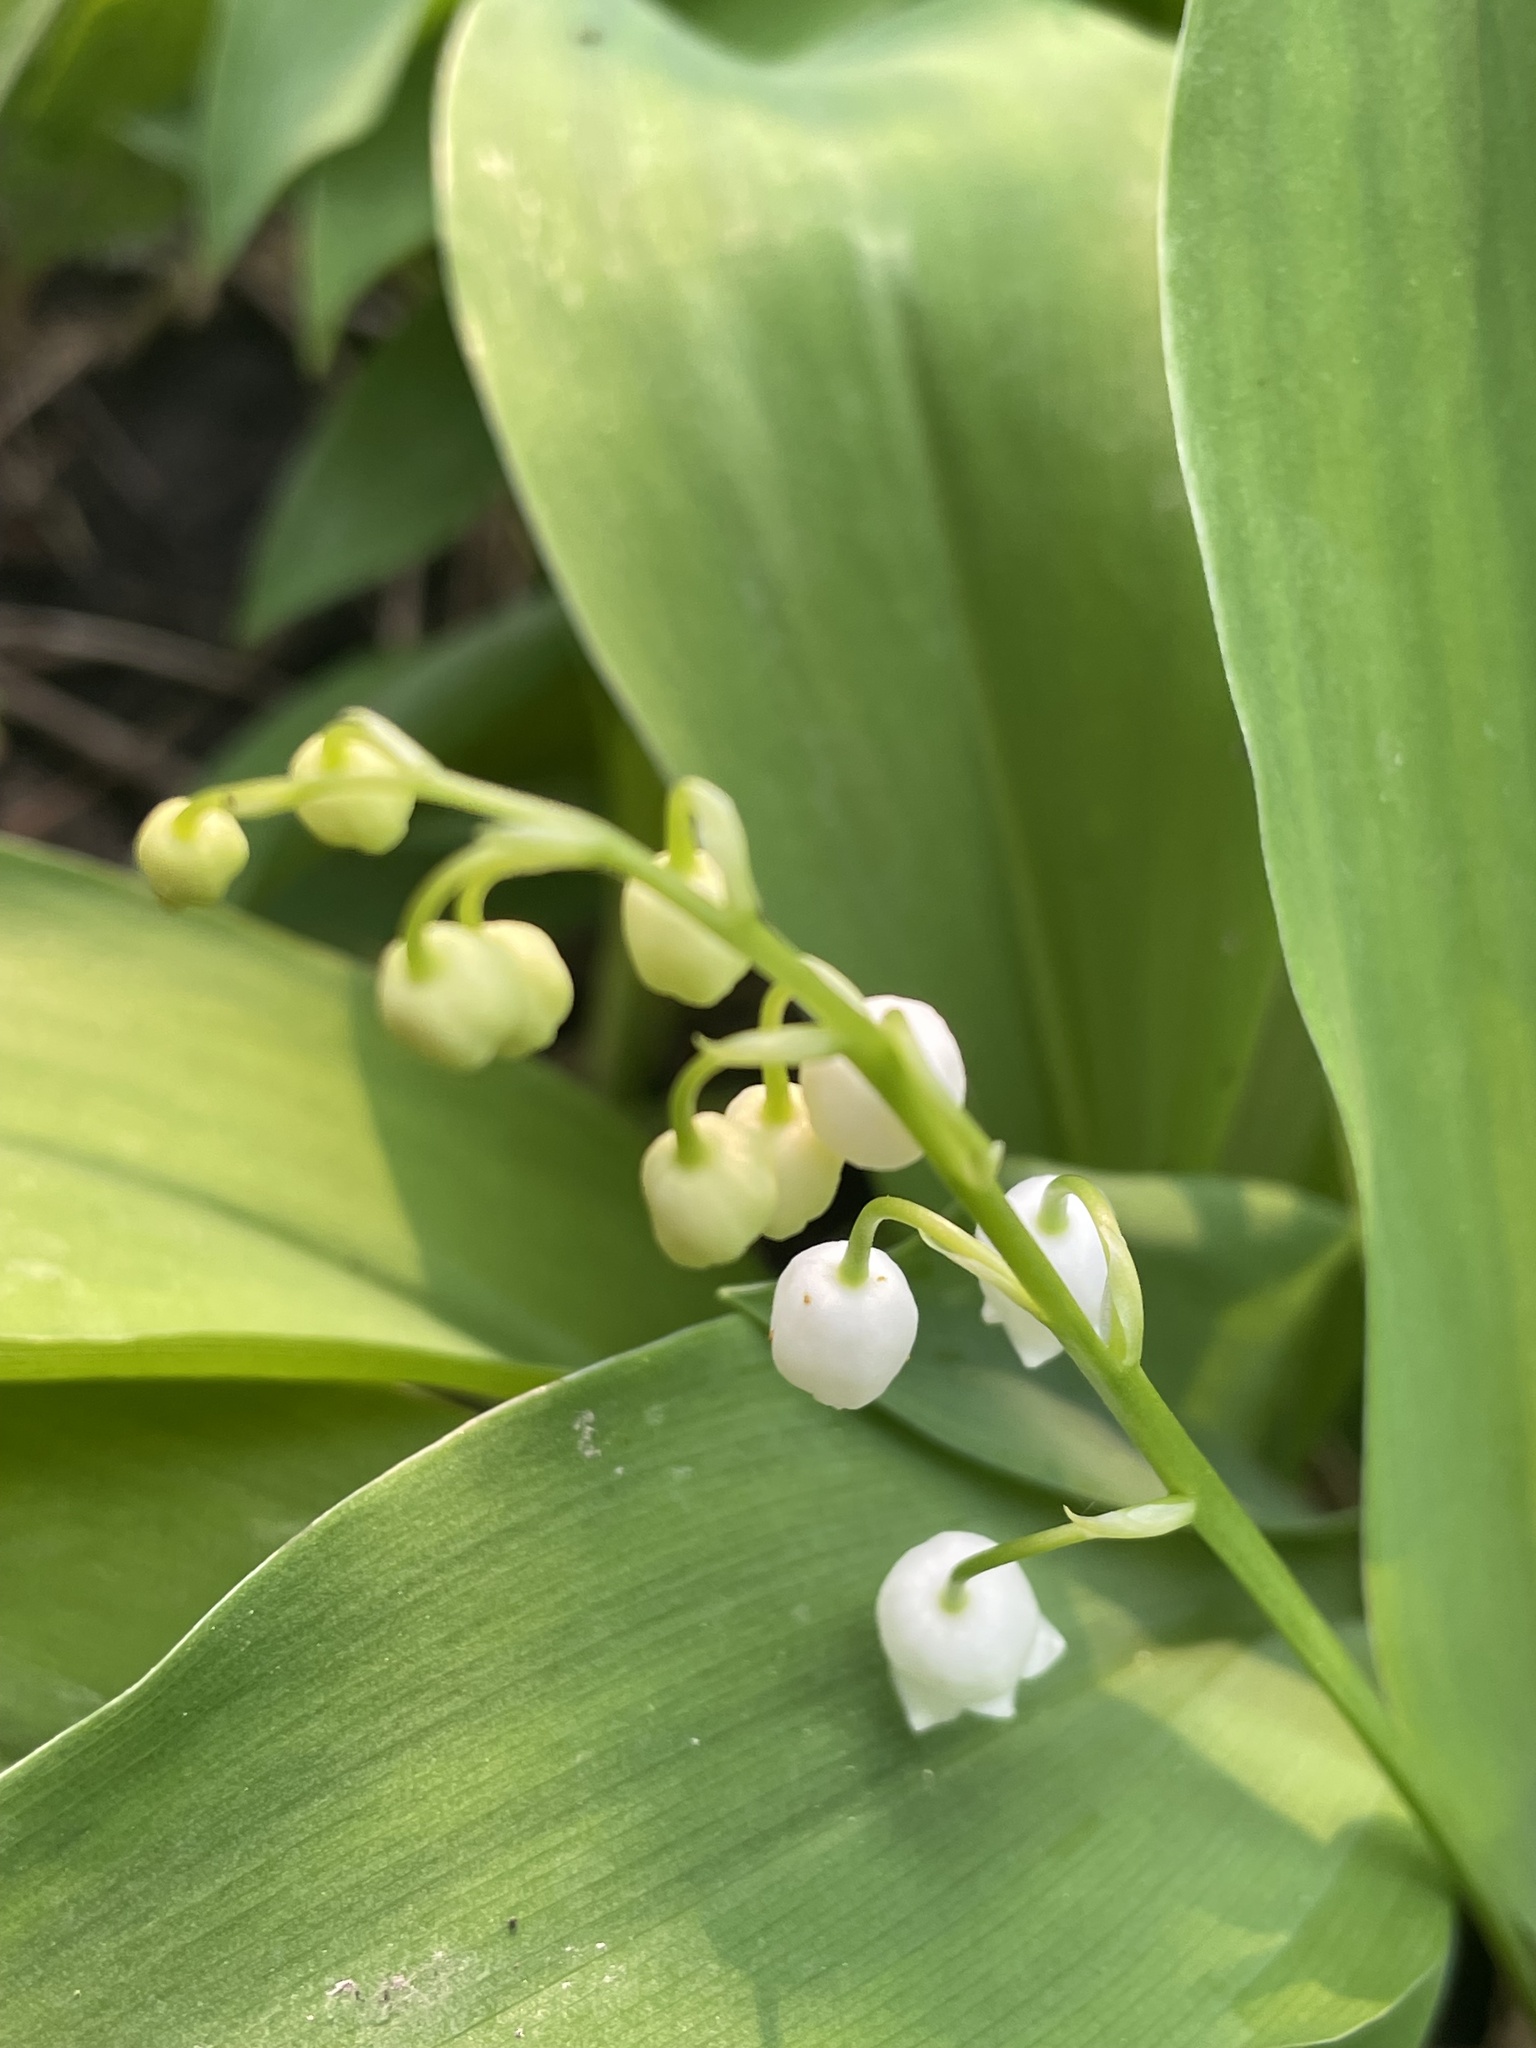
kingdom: Plantae
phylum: Tracheophyta
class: Liliopsida
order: Asparagales
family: Asparagaceae
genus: Convallaria
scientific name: Convallaria majalis
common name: Lily-of-the-valley
